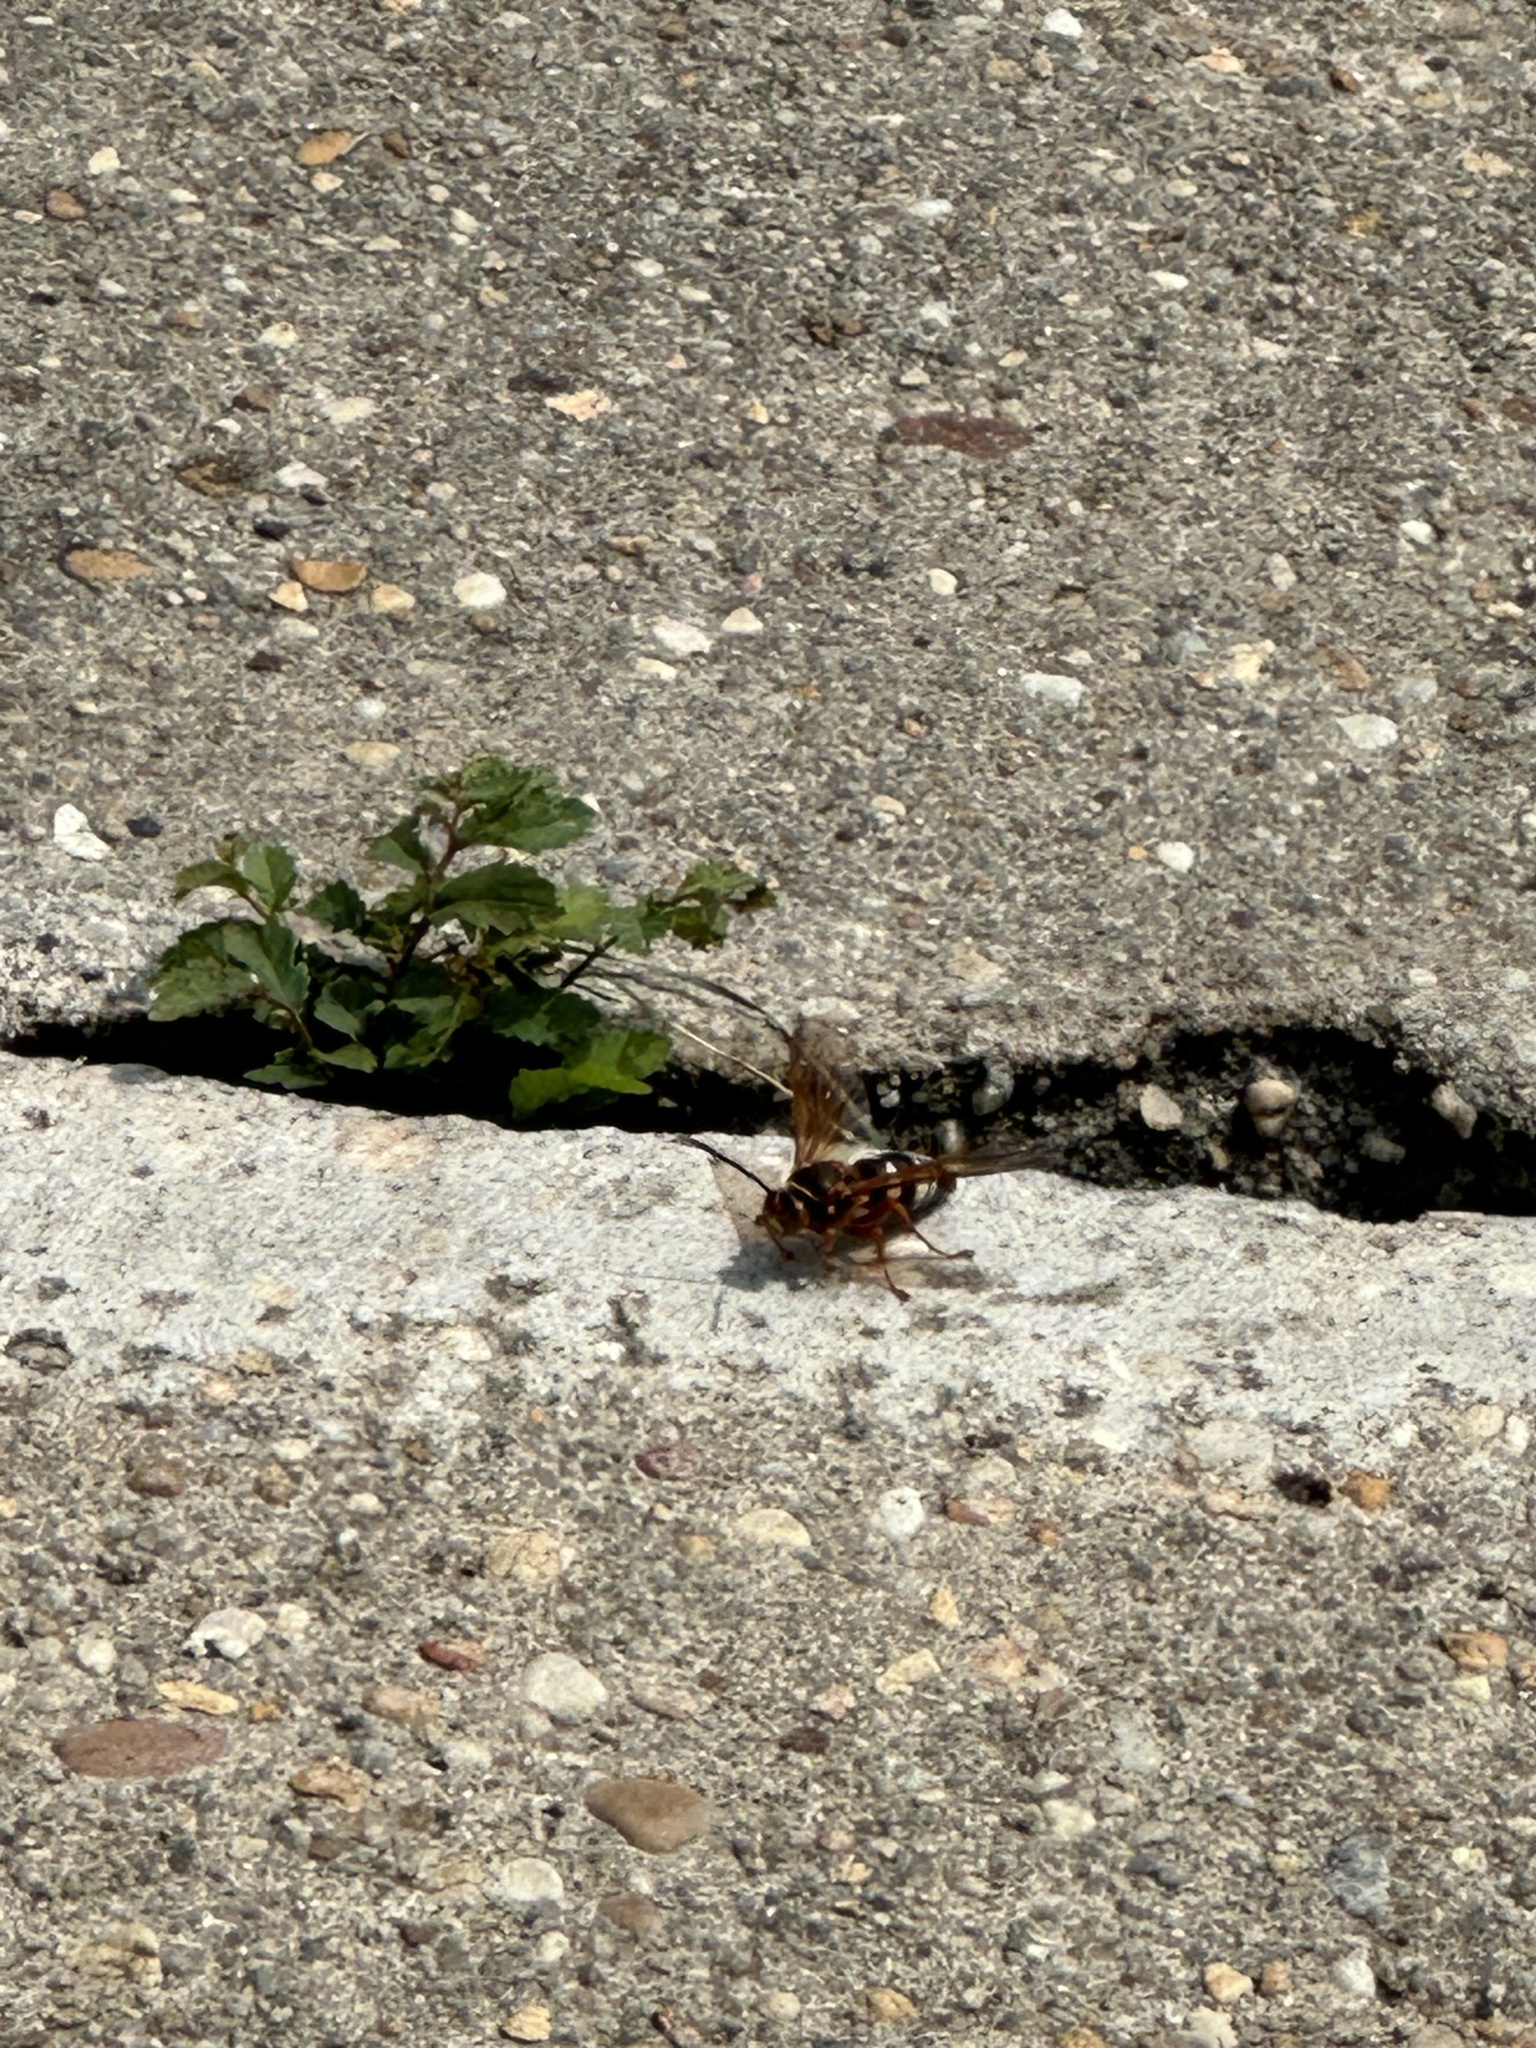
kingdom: Animalia
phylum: Arthropoda
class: Insecta
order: Hymenoptera
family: Crabronidae
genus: Sphecius
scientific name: Sphecius speciosus
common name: Cicada killer
